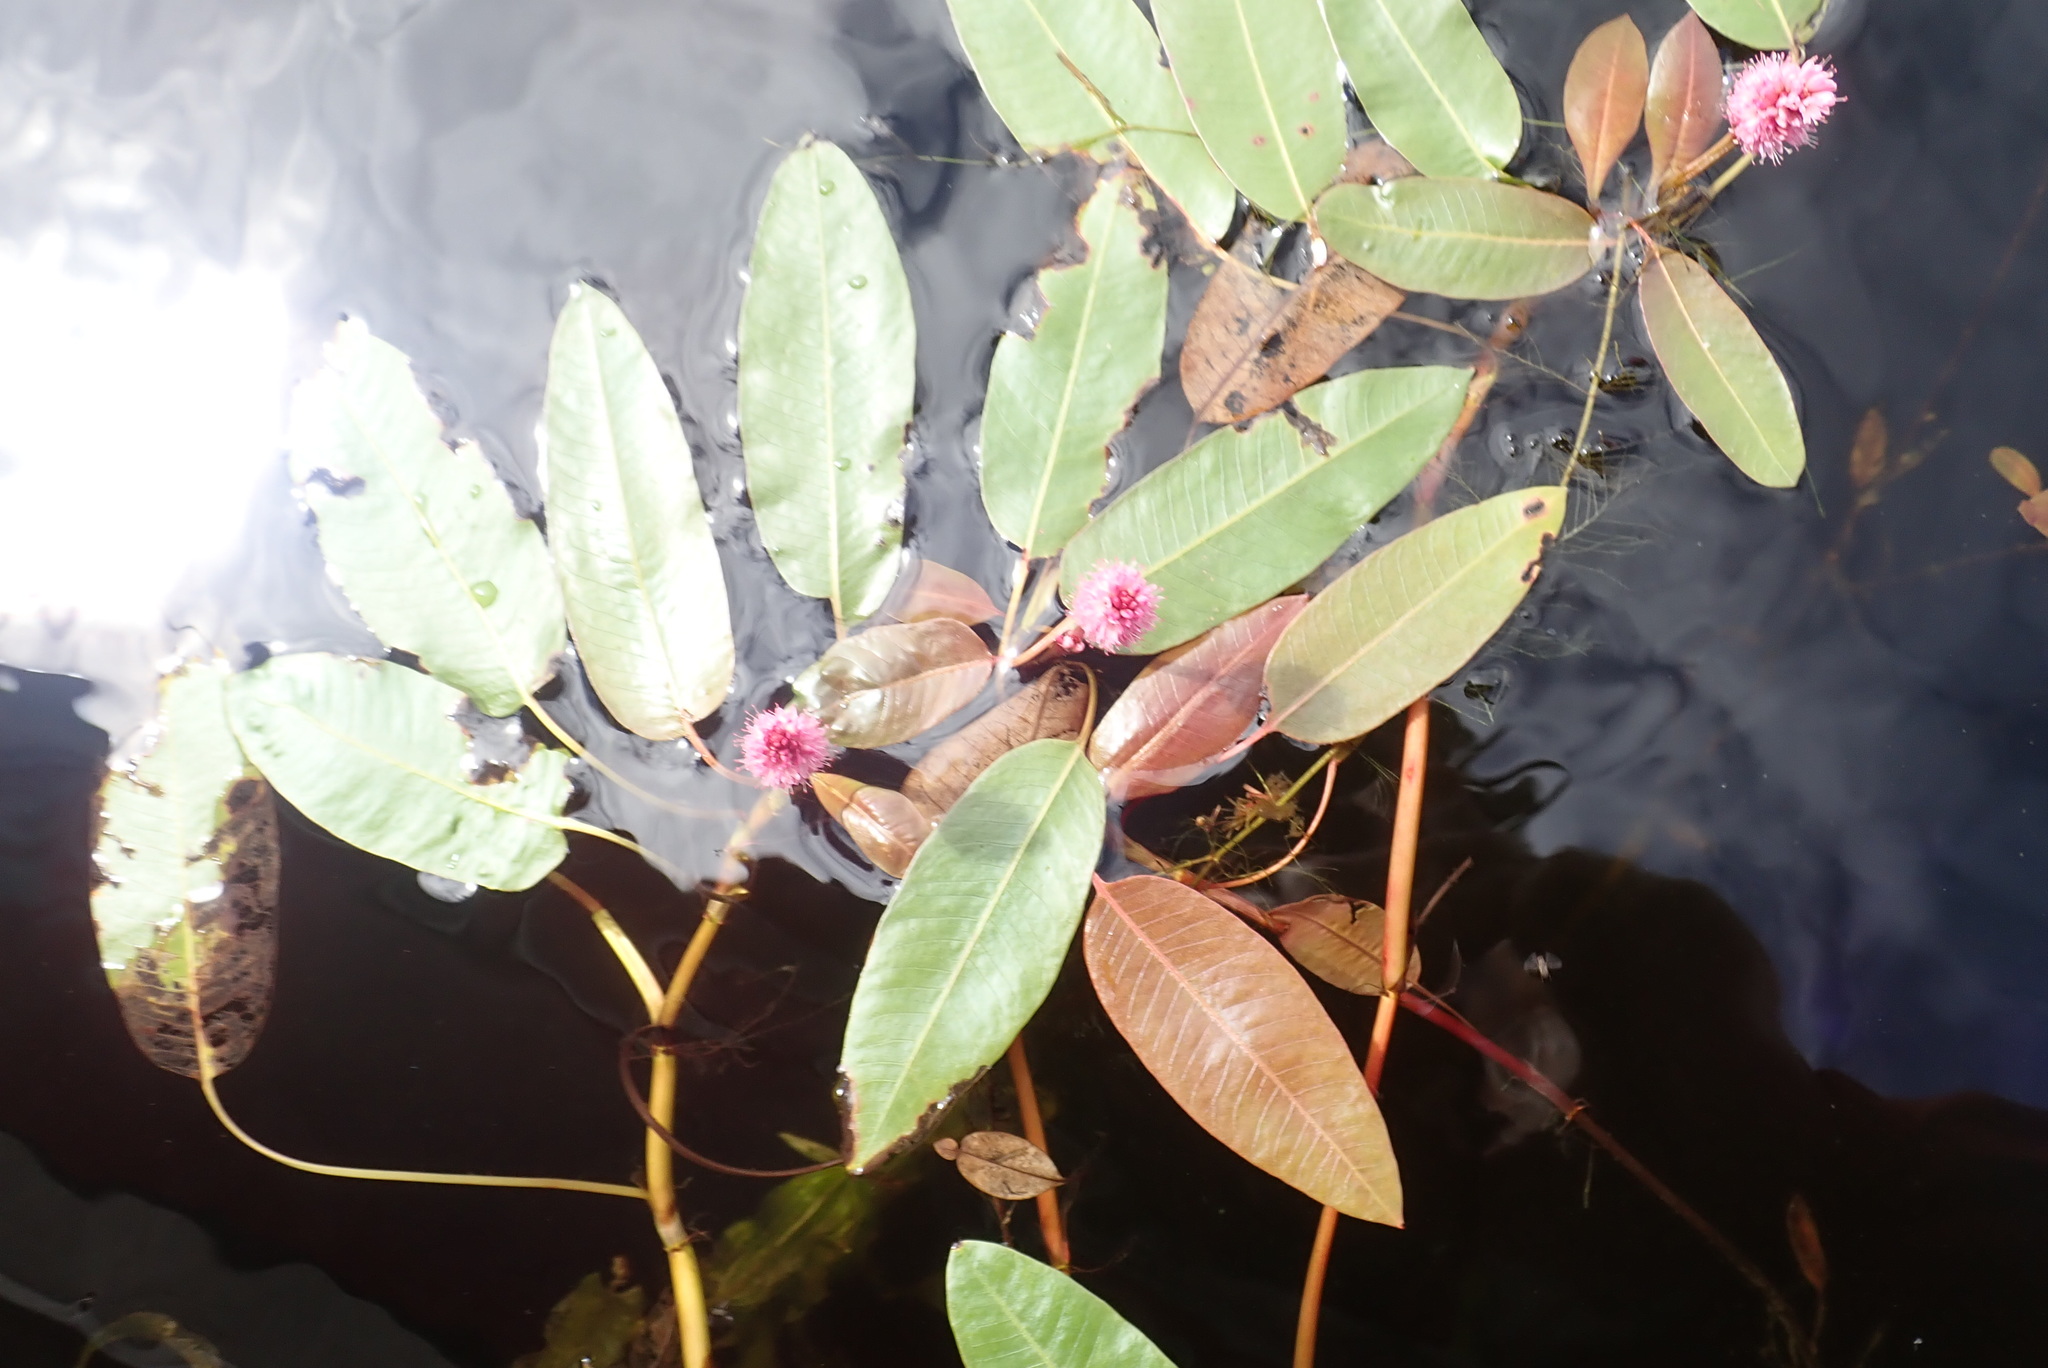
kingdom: Plantae
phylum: Tracheophyta
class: Magnoliopsida
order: Caryophyllales
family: Polygonaceae
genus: Persicaria
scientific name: Persicaria amphibia
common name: Amphibious bistort
